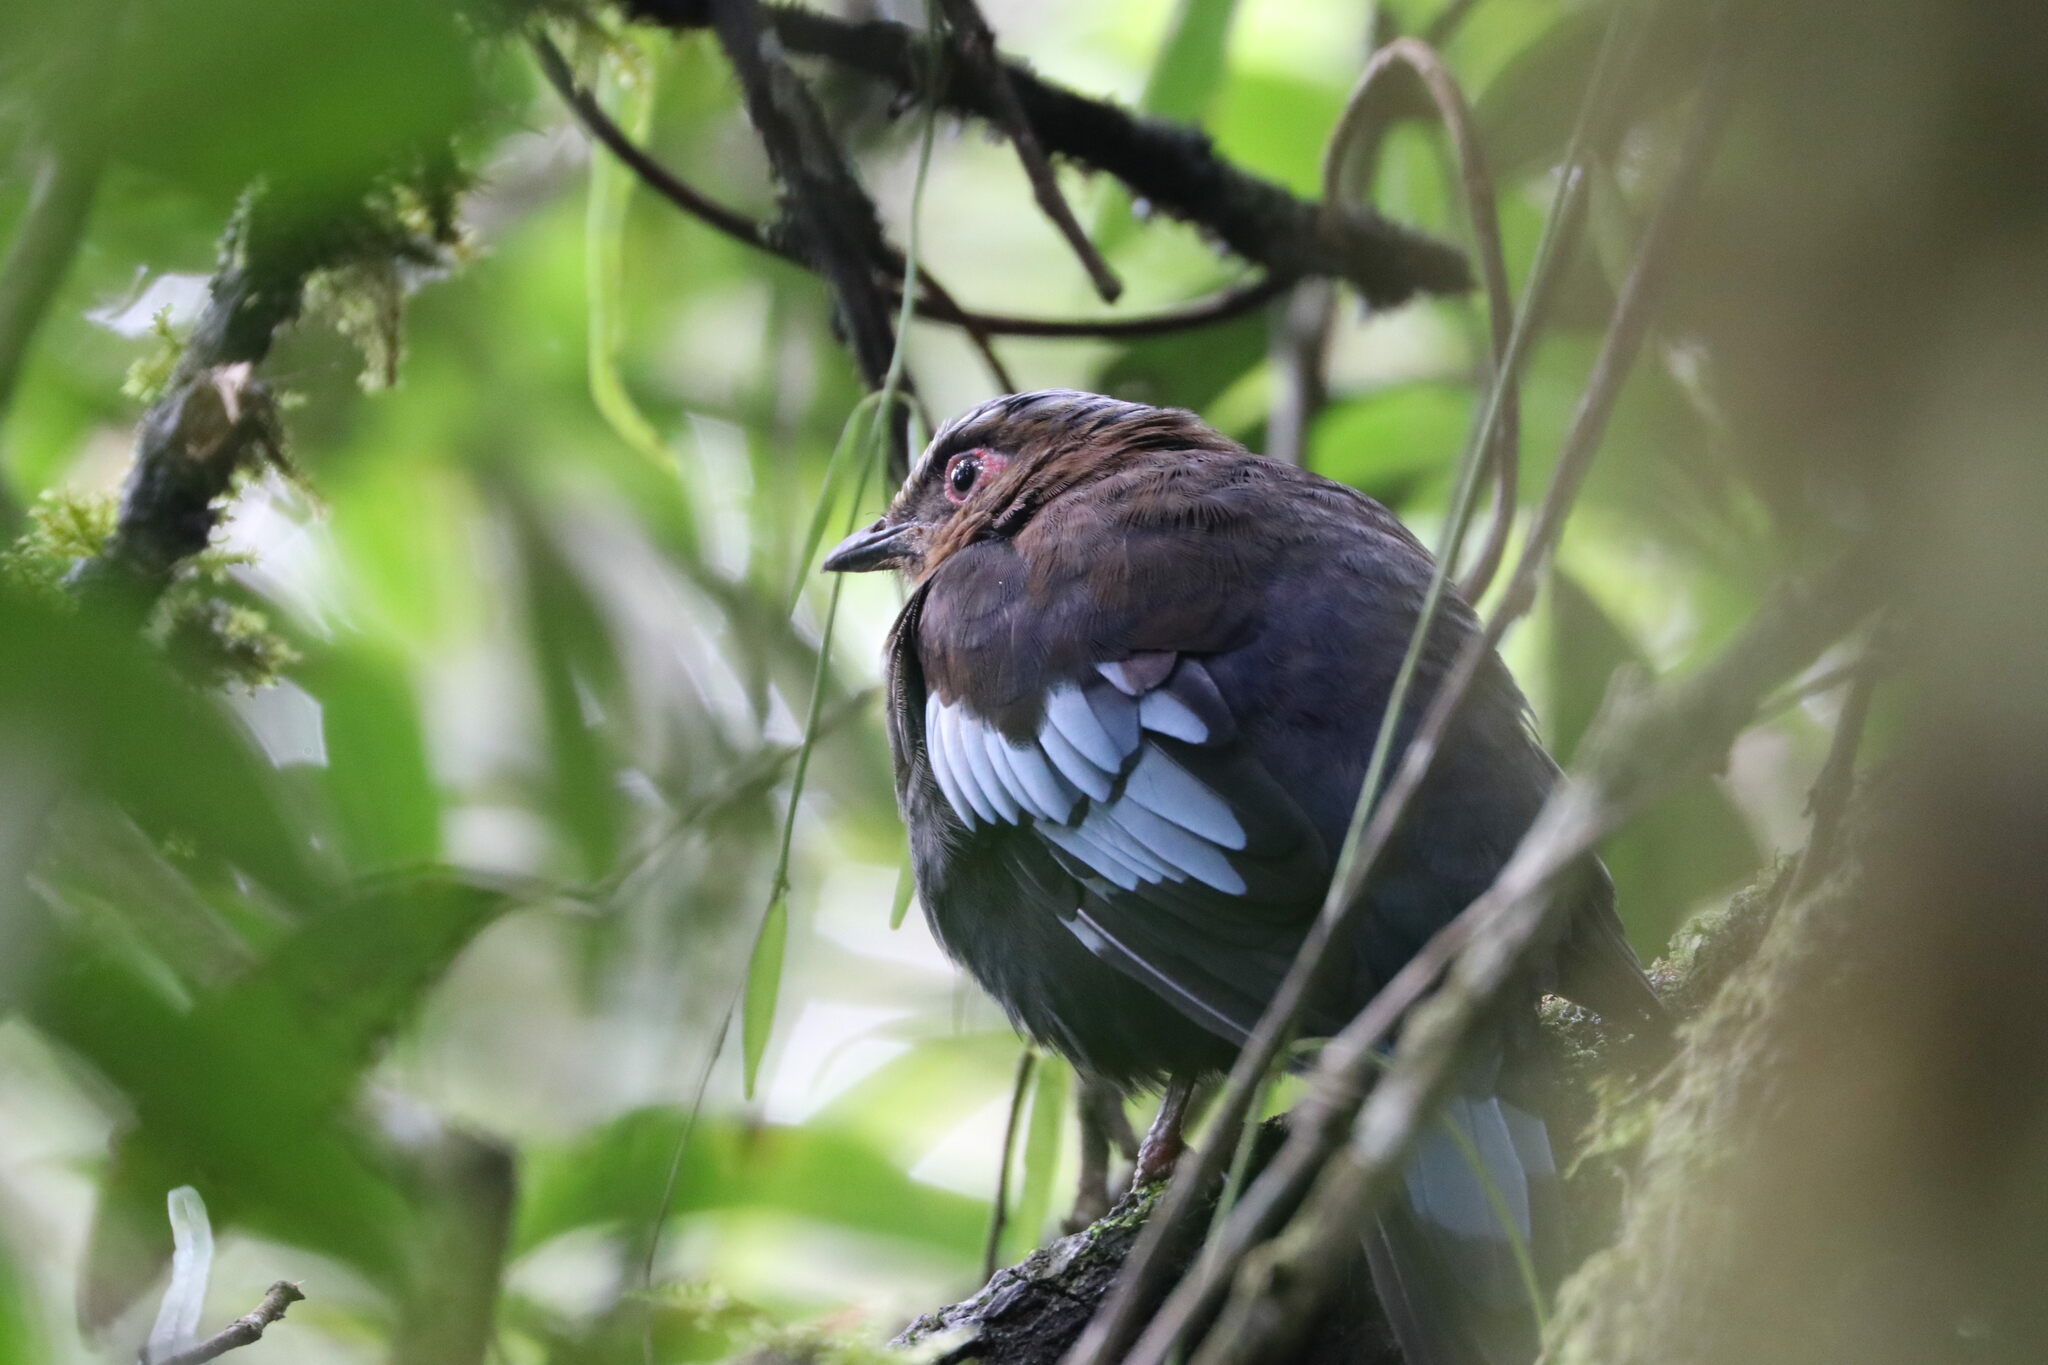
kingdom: Animalia
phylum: Chordata
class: Aves
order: Passeriformes
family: Turdidae
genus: Cochoa
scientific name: Cochoa beccarii
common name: Sumatran cochoa
